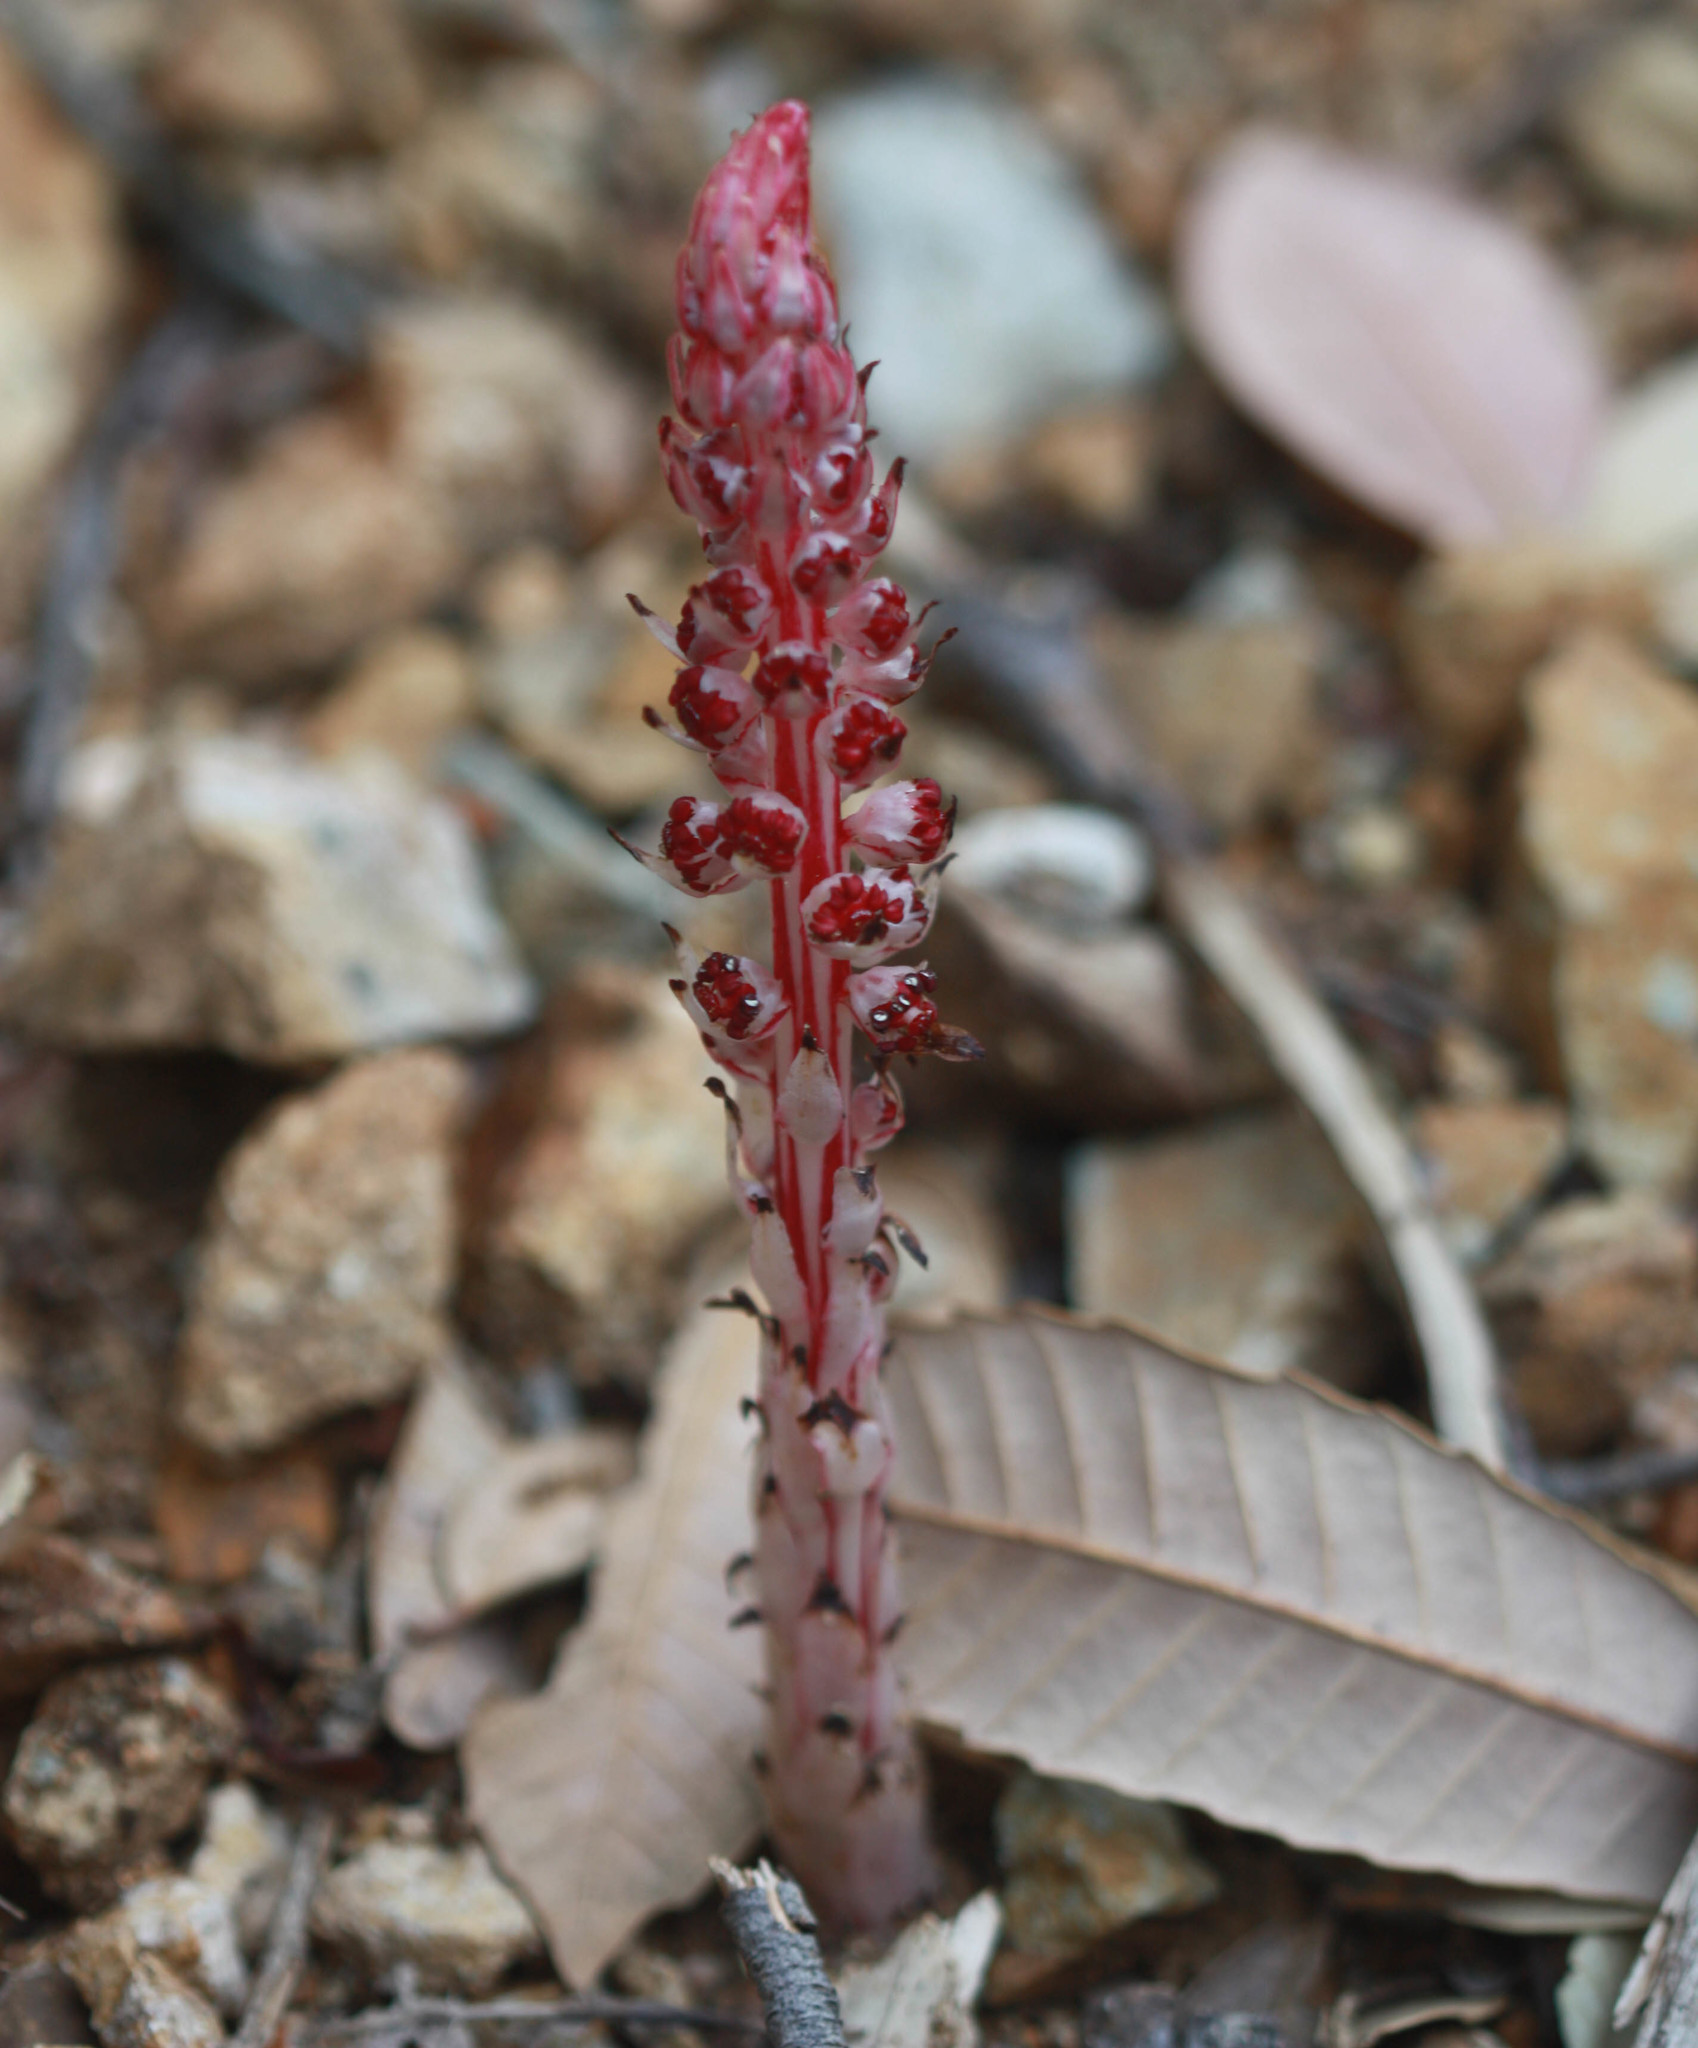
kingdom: Plantae
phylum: Tracheophyta
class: Magnoliopsida
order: Ericales
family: Ericaceae
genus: Allotropa
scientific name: Allotropa virgata
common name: Candy-striped allotropa
